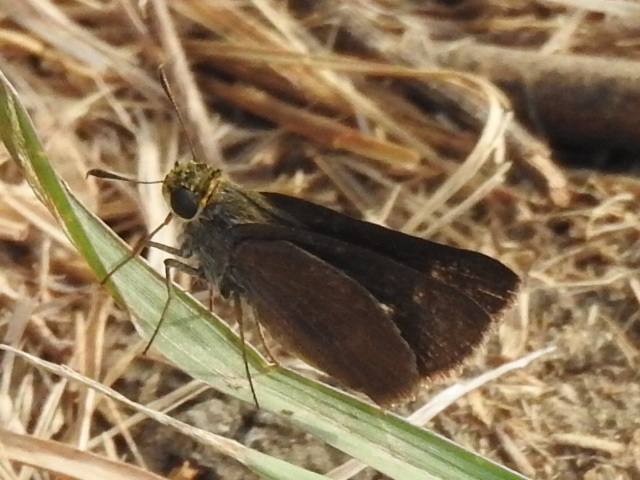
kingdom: Animalia
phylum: Arthropoda
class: Insecta
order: Lepidoptera
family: Hesperiidae
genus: Euphyes
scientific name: Euphyes vestris
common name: Dun skipper
